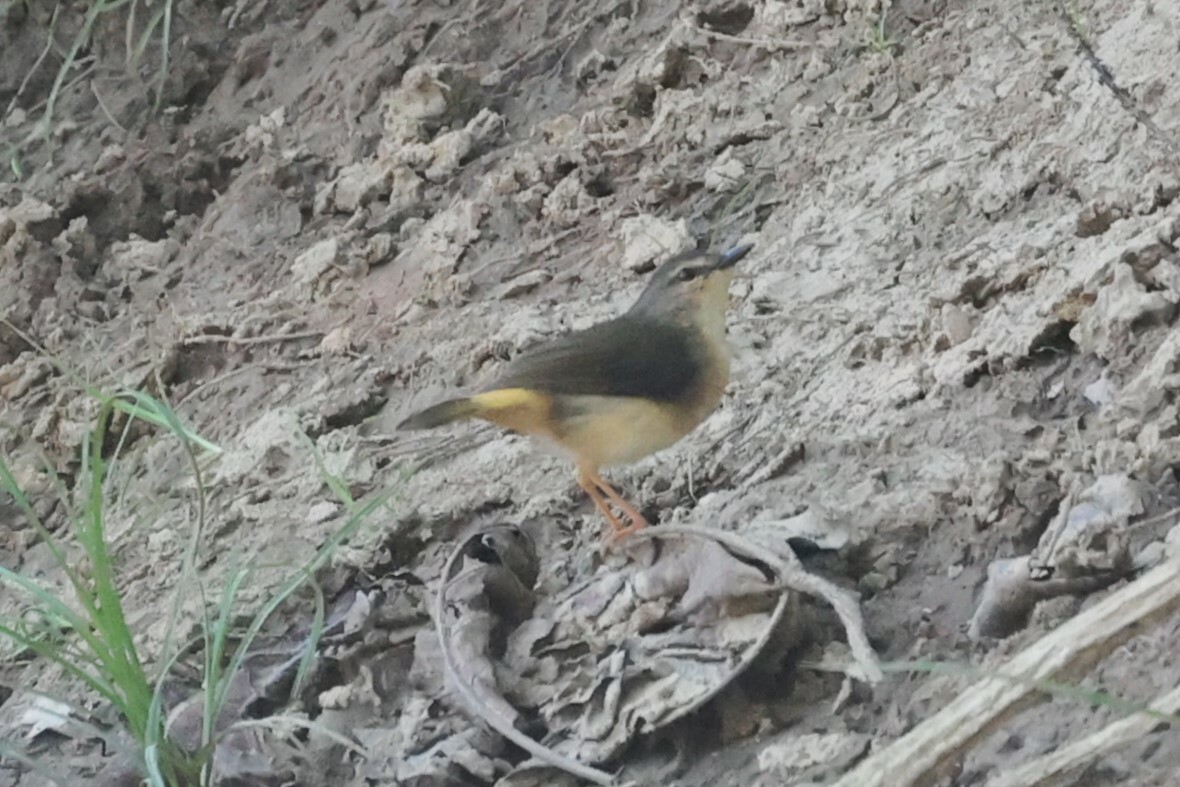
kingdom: Animalia
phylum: Chordata
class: Aves
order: Passeriformes
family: Parulidae
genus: Myiothlypis
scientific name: Myiothlypis fulvicauda
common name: Buff-rumped warbler
